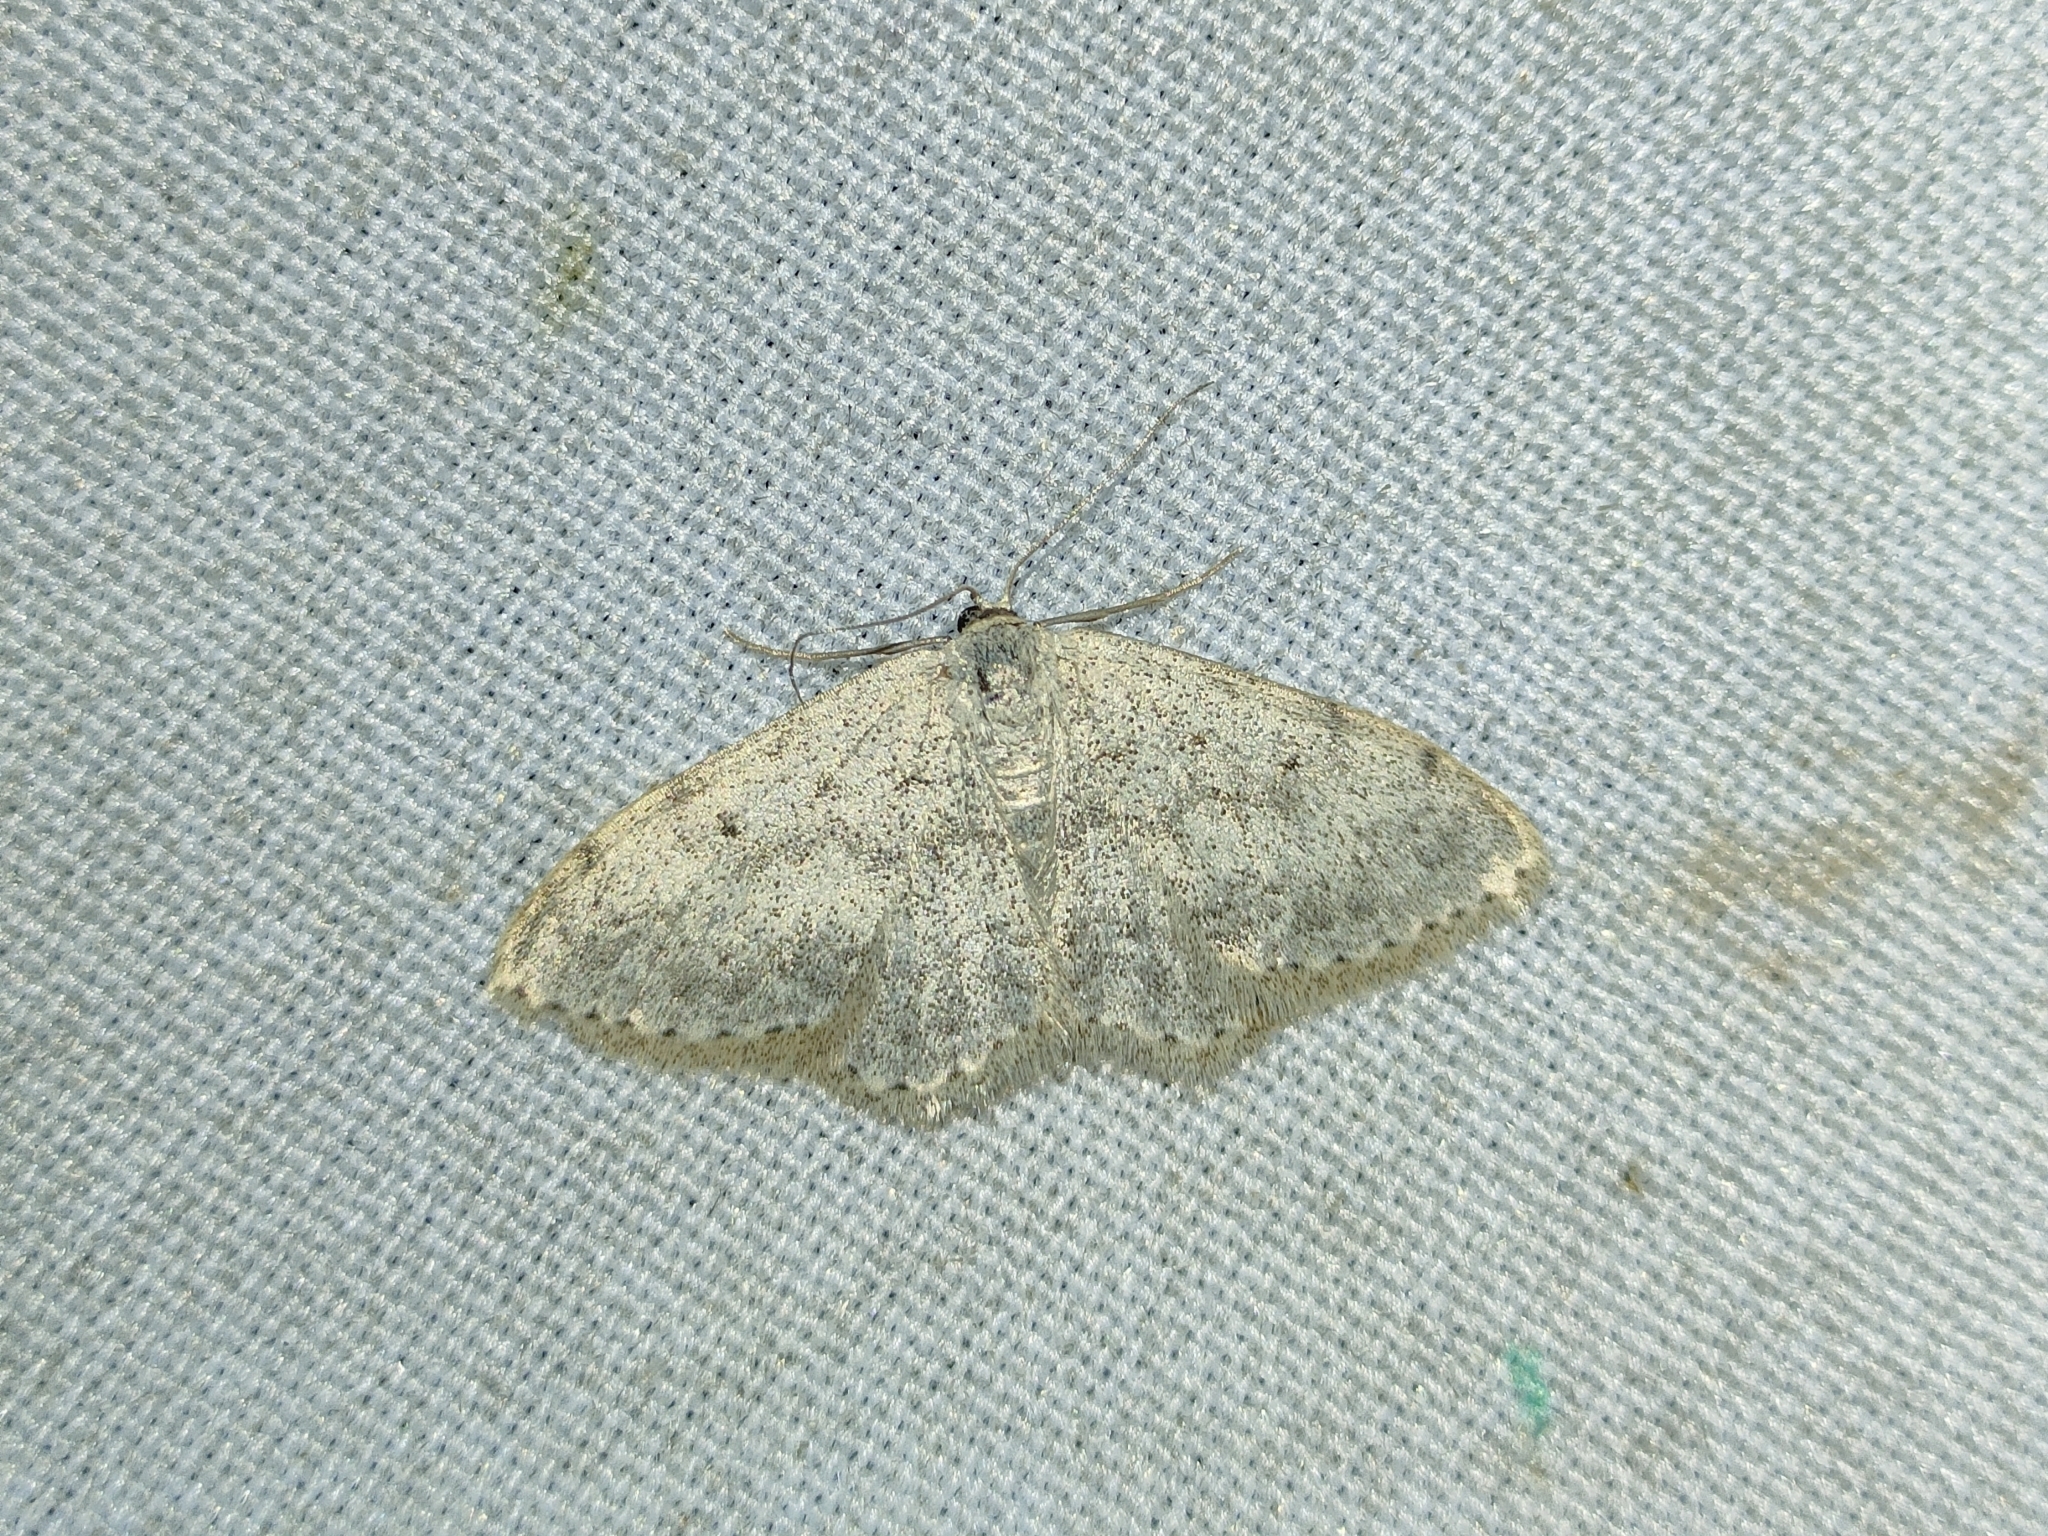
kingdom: Animalia
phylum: Arthropoda
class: Insecta
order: Lepidoptera
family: Geometridae
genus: Scopula
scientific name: Scopula marginepunctata
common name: Mullein wave
